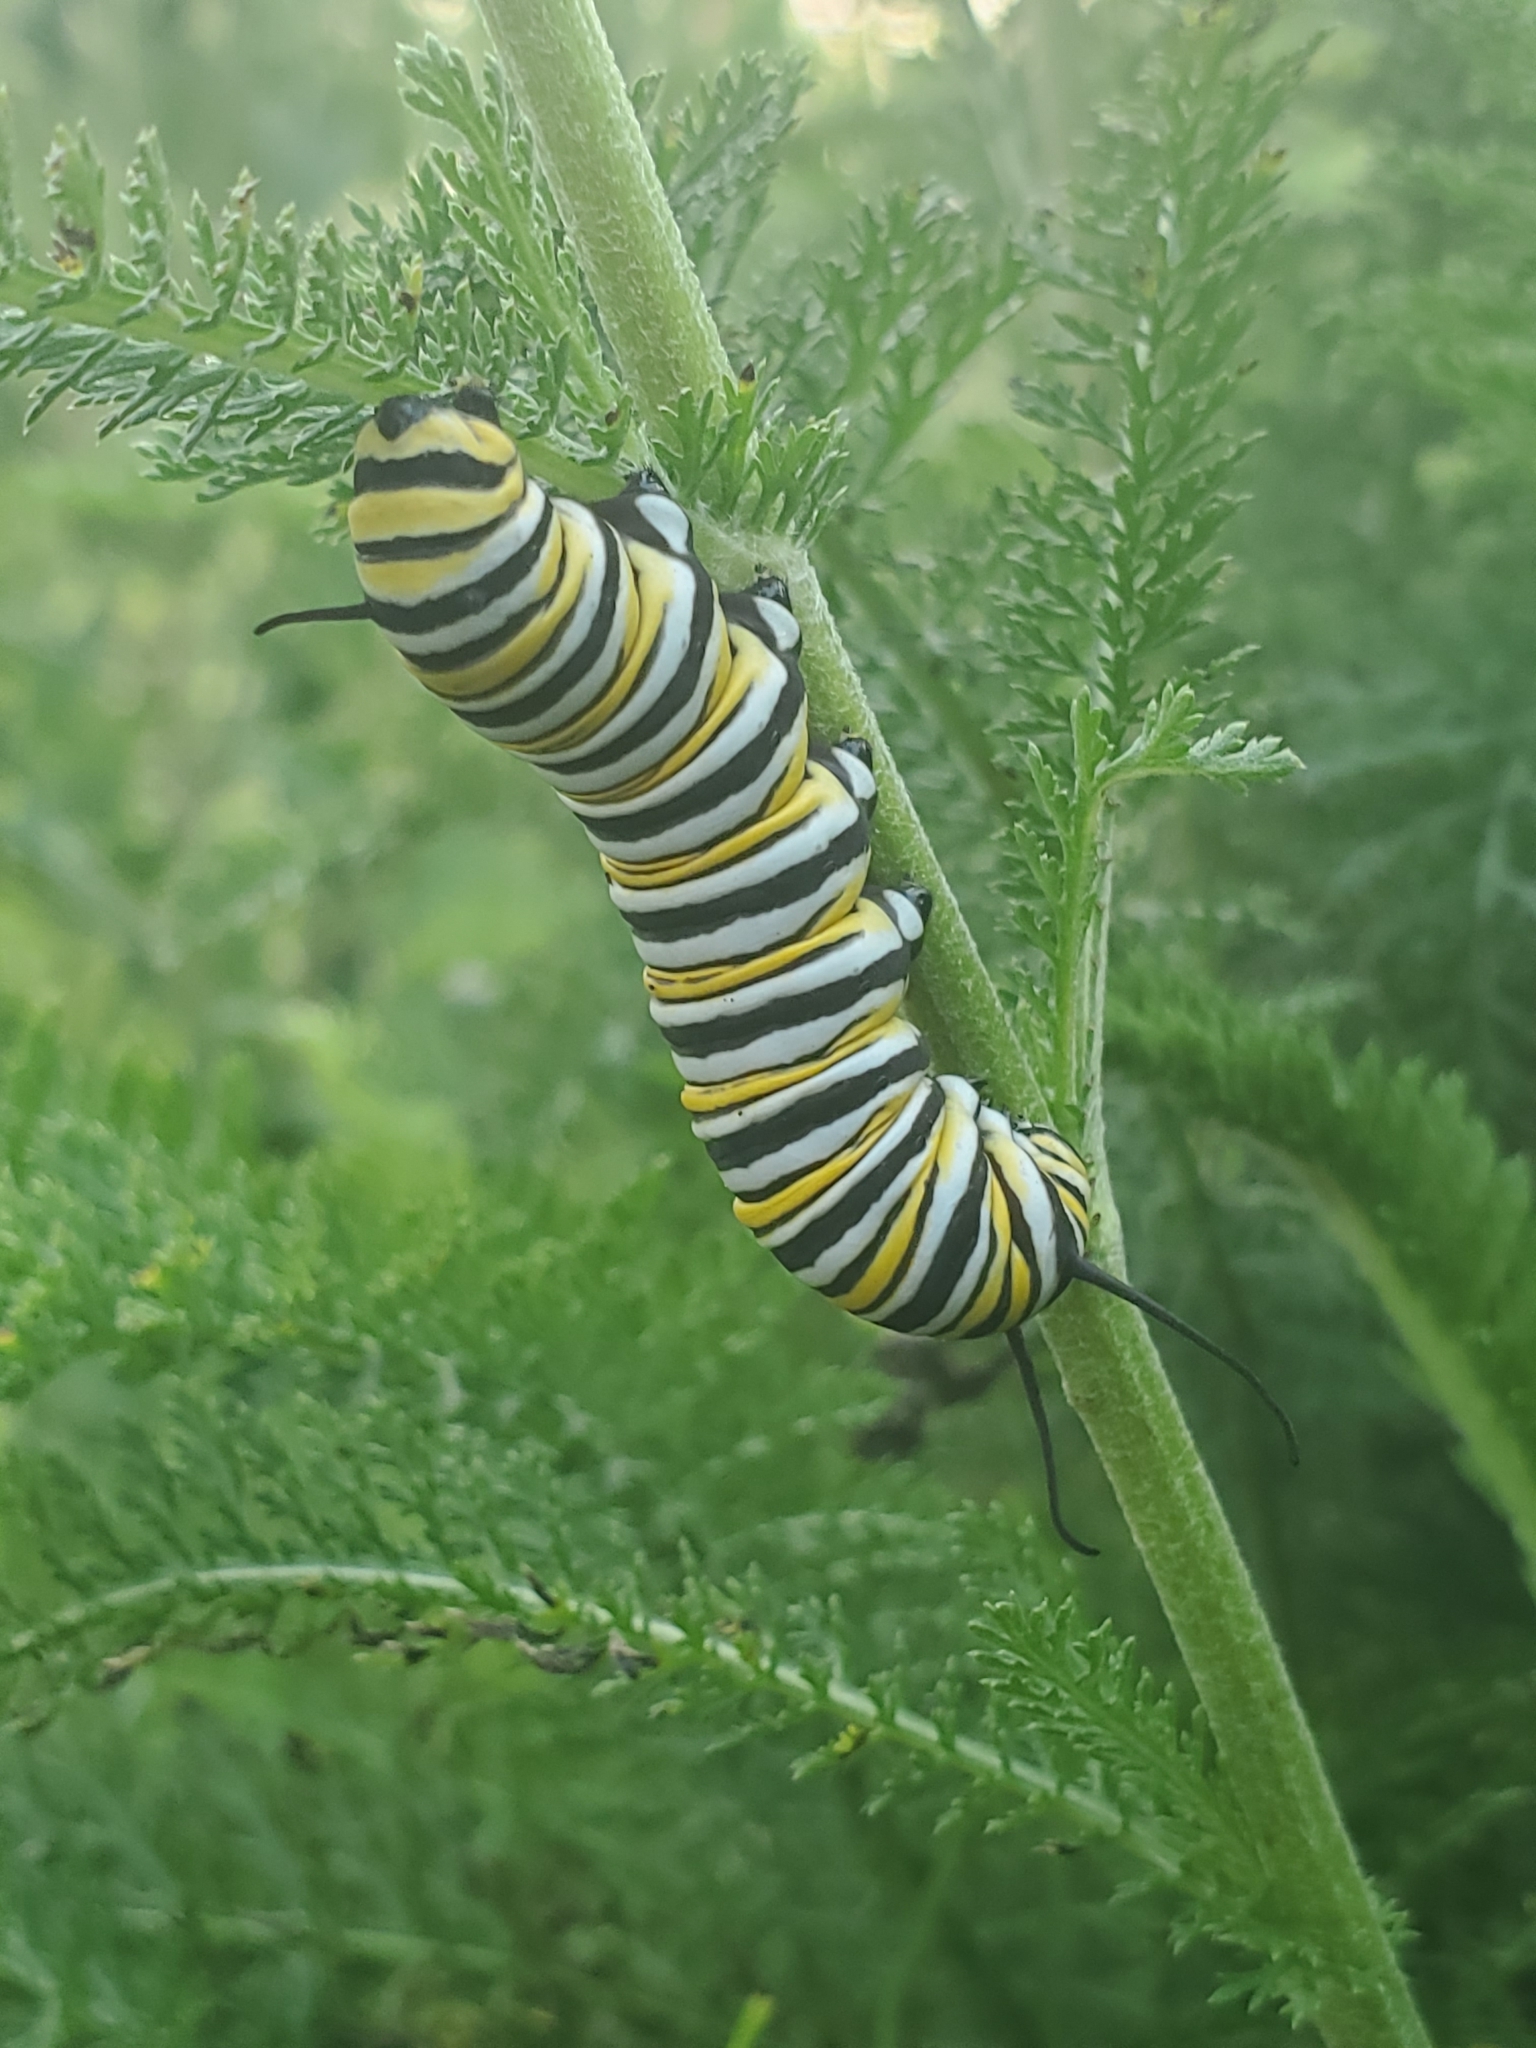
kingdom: Animalia
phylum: Arthropoda
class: Insecta
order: Lepidoptera
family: Nymphalidae
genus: Danaus
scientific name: Danaus plexippus
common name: Monarch
